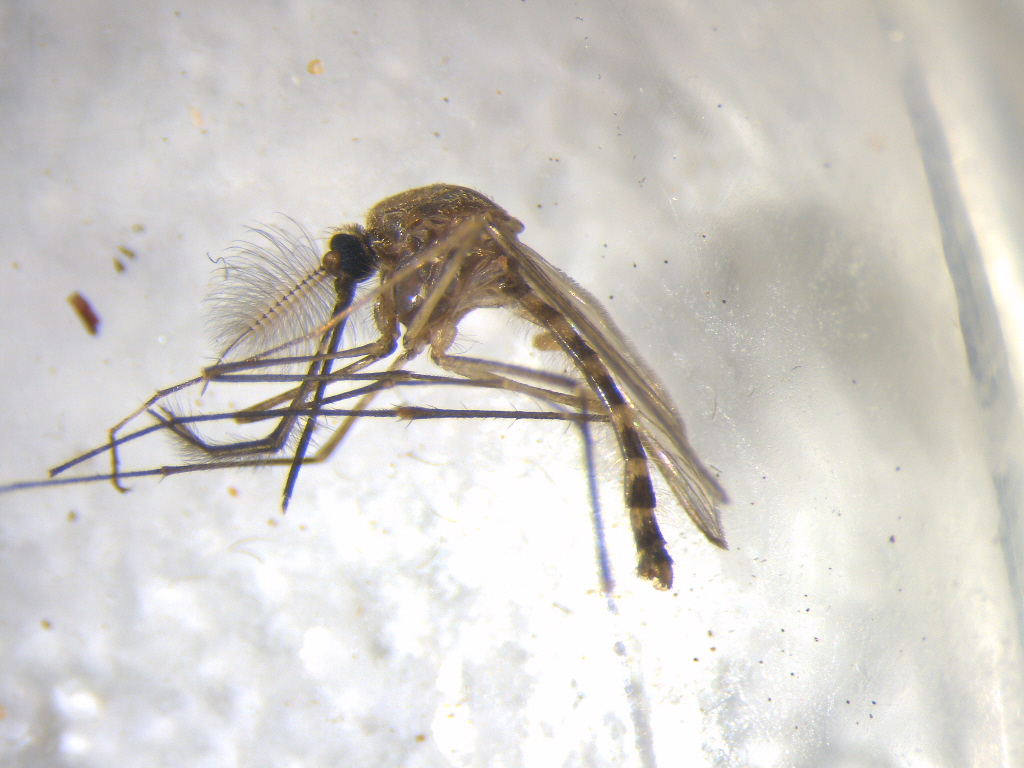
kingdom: Animalia
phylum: Arthropoda
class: Insecta
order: Diptera
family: Culicidae
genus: Culex
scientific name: Culex pervigilans
